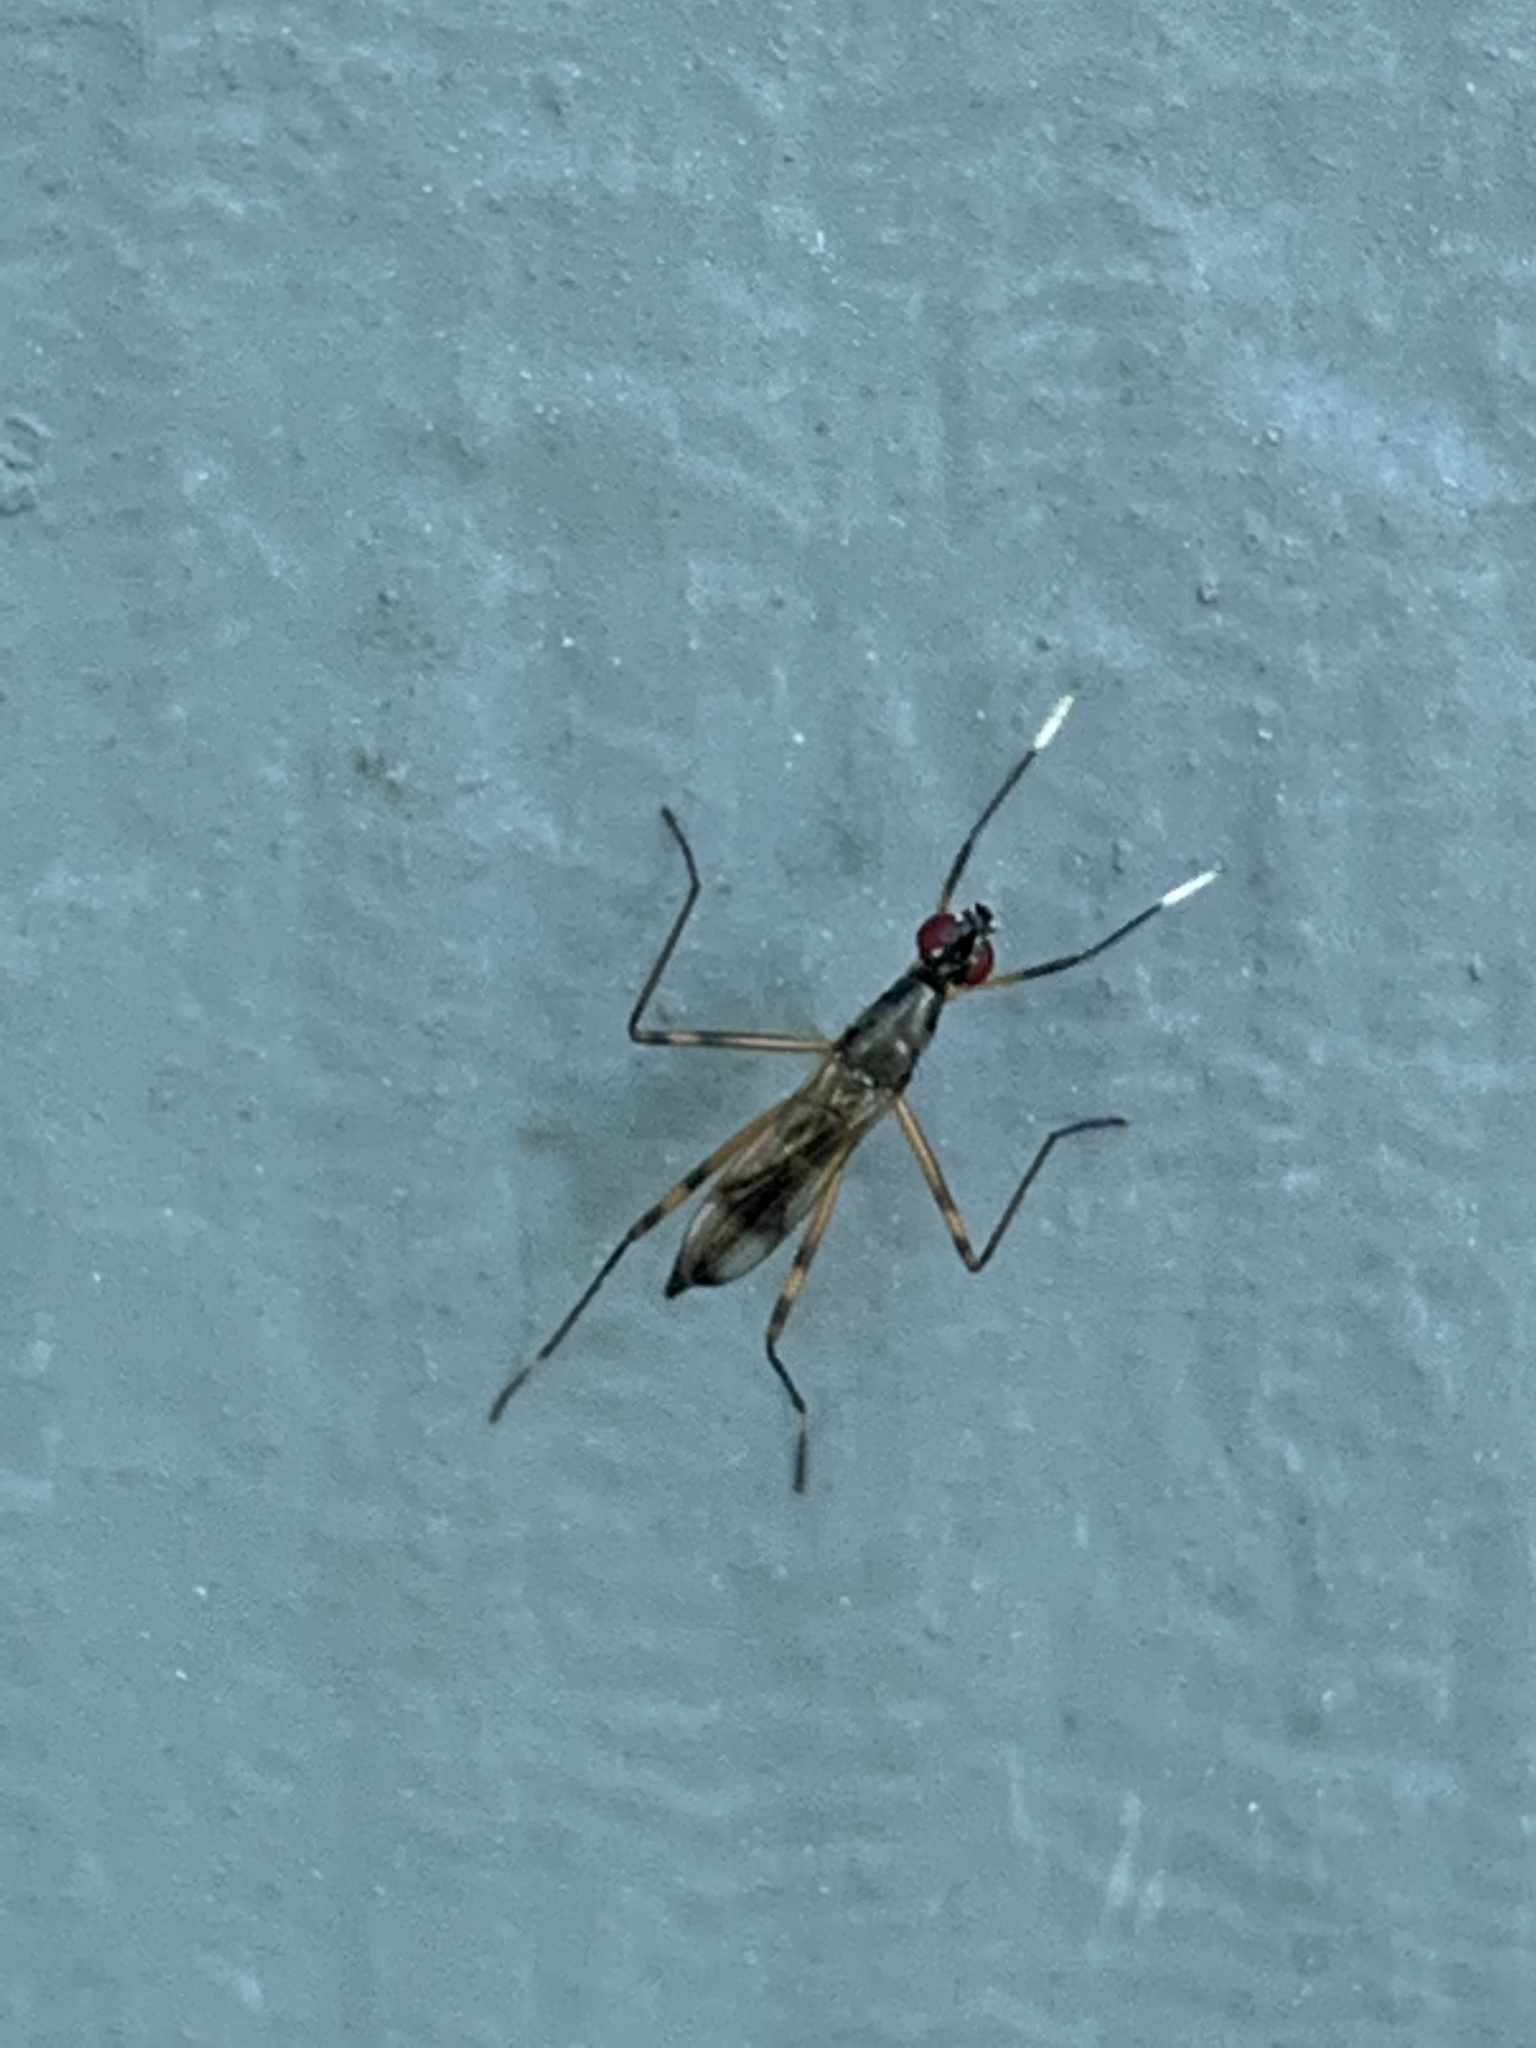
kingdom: Animalia
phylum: Arthropoda
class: Insecta
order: Diptera
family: Micropezidae
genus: Rainieria
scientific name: Rainieria antennaepes
